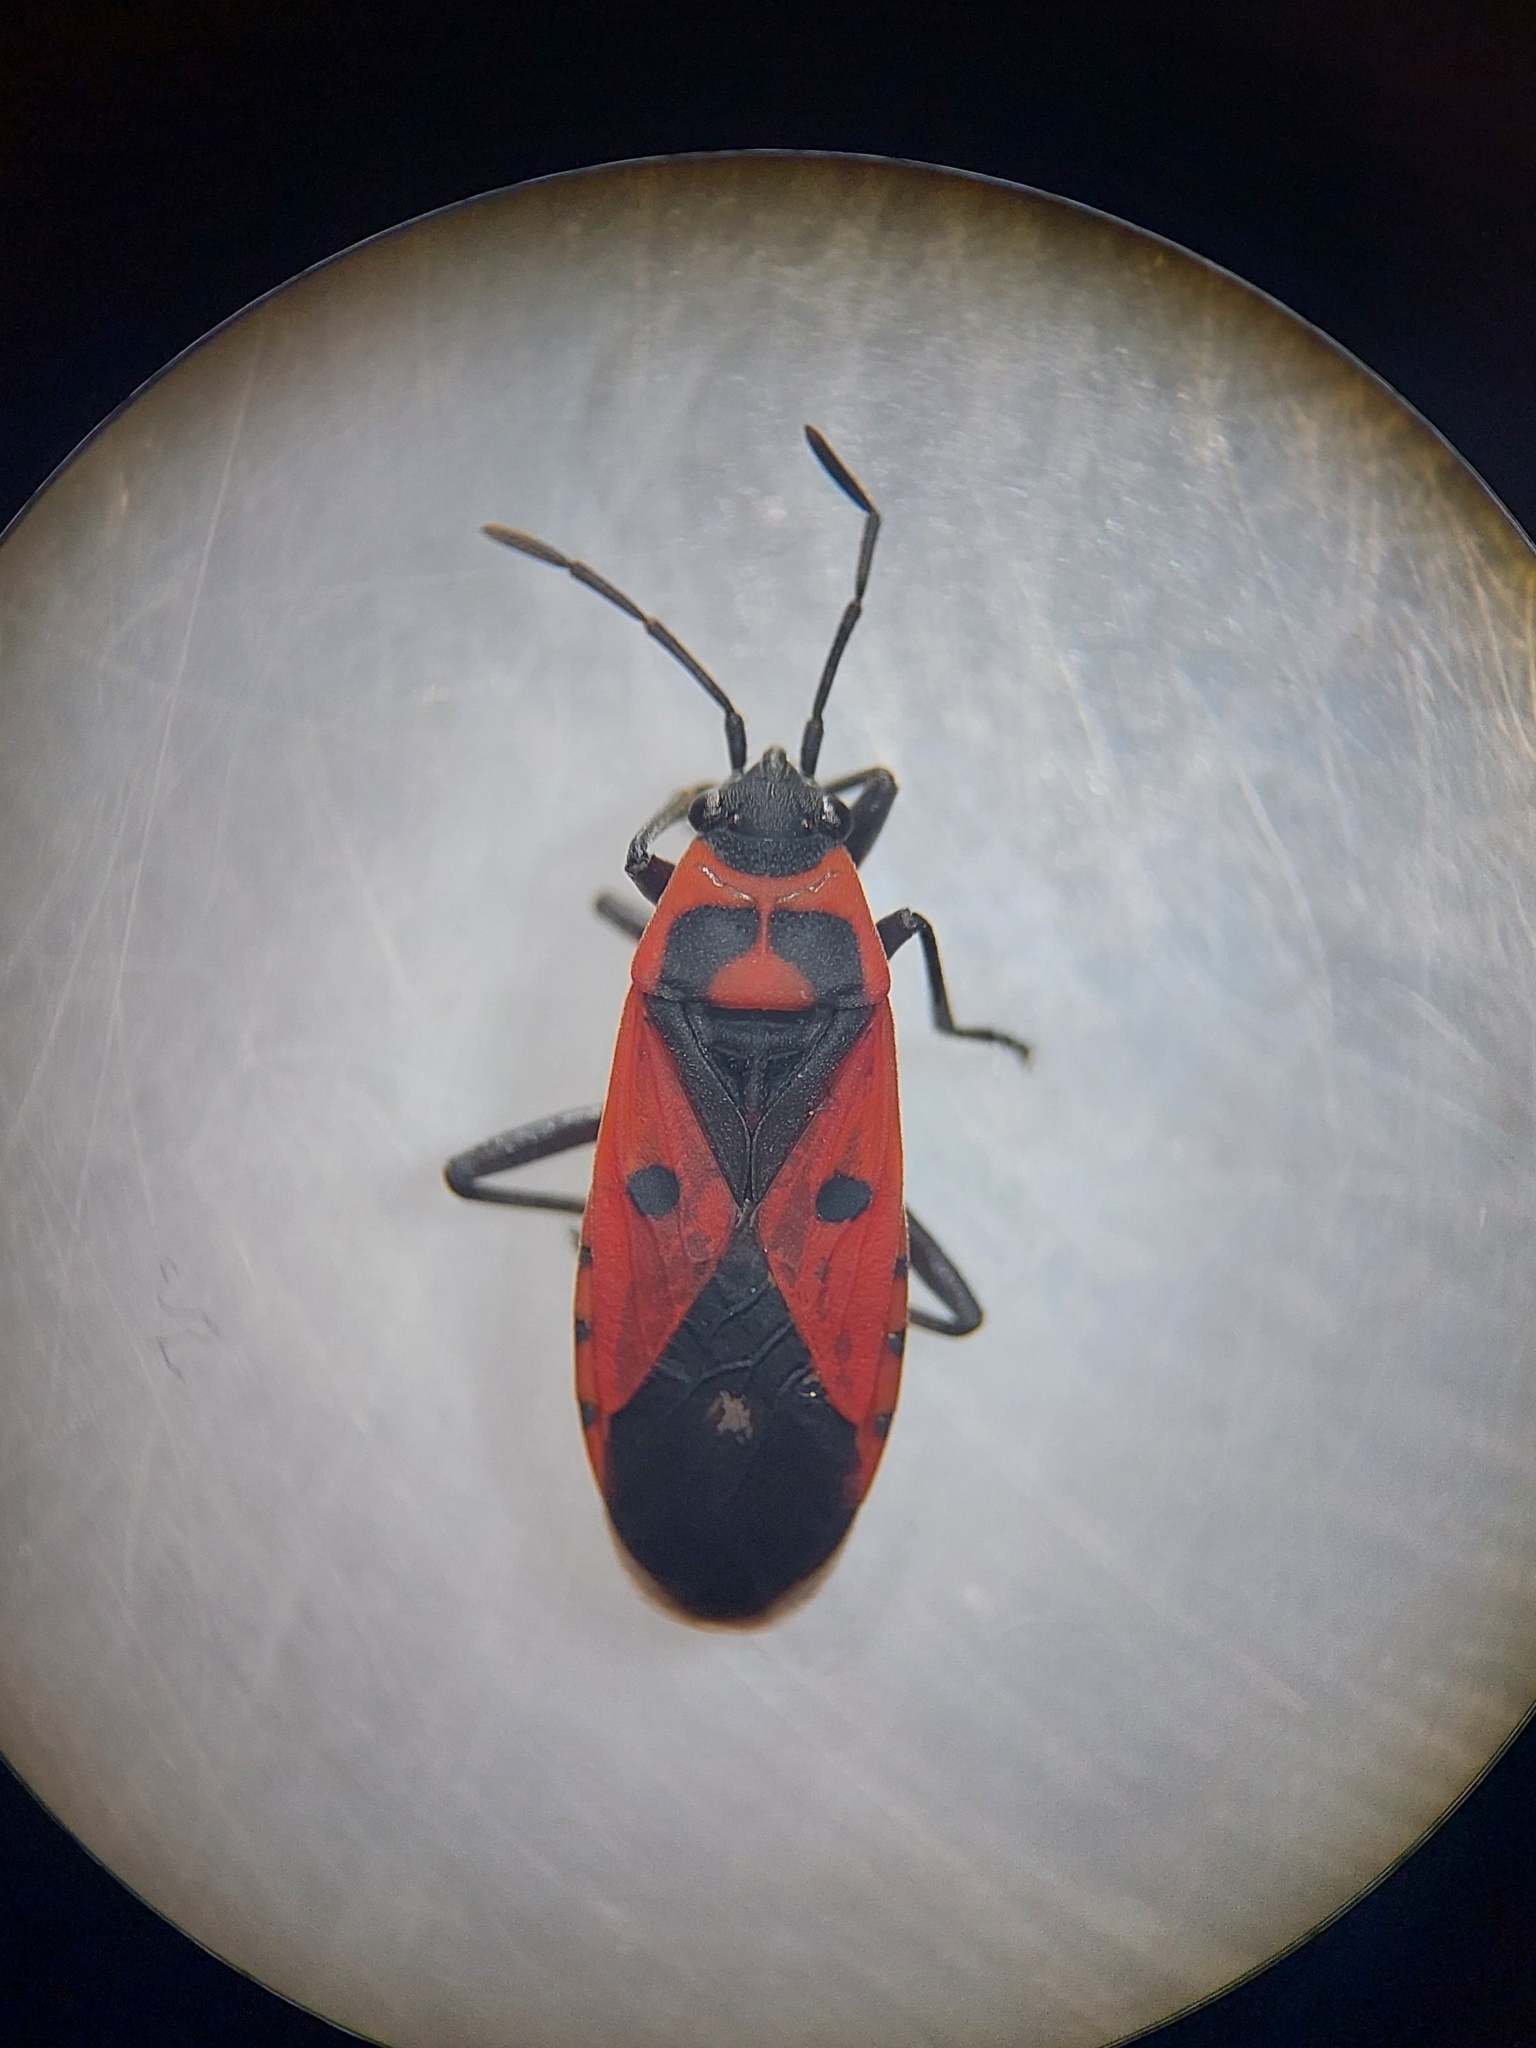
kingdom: Animalia
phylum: Arthropoda
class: Insecta
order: Hemiptera
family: Lygaeidae
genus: Melanocoryphus
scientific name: Melanocoryphus albomaculatus
